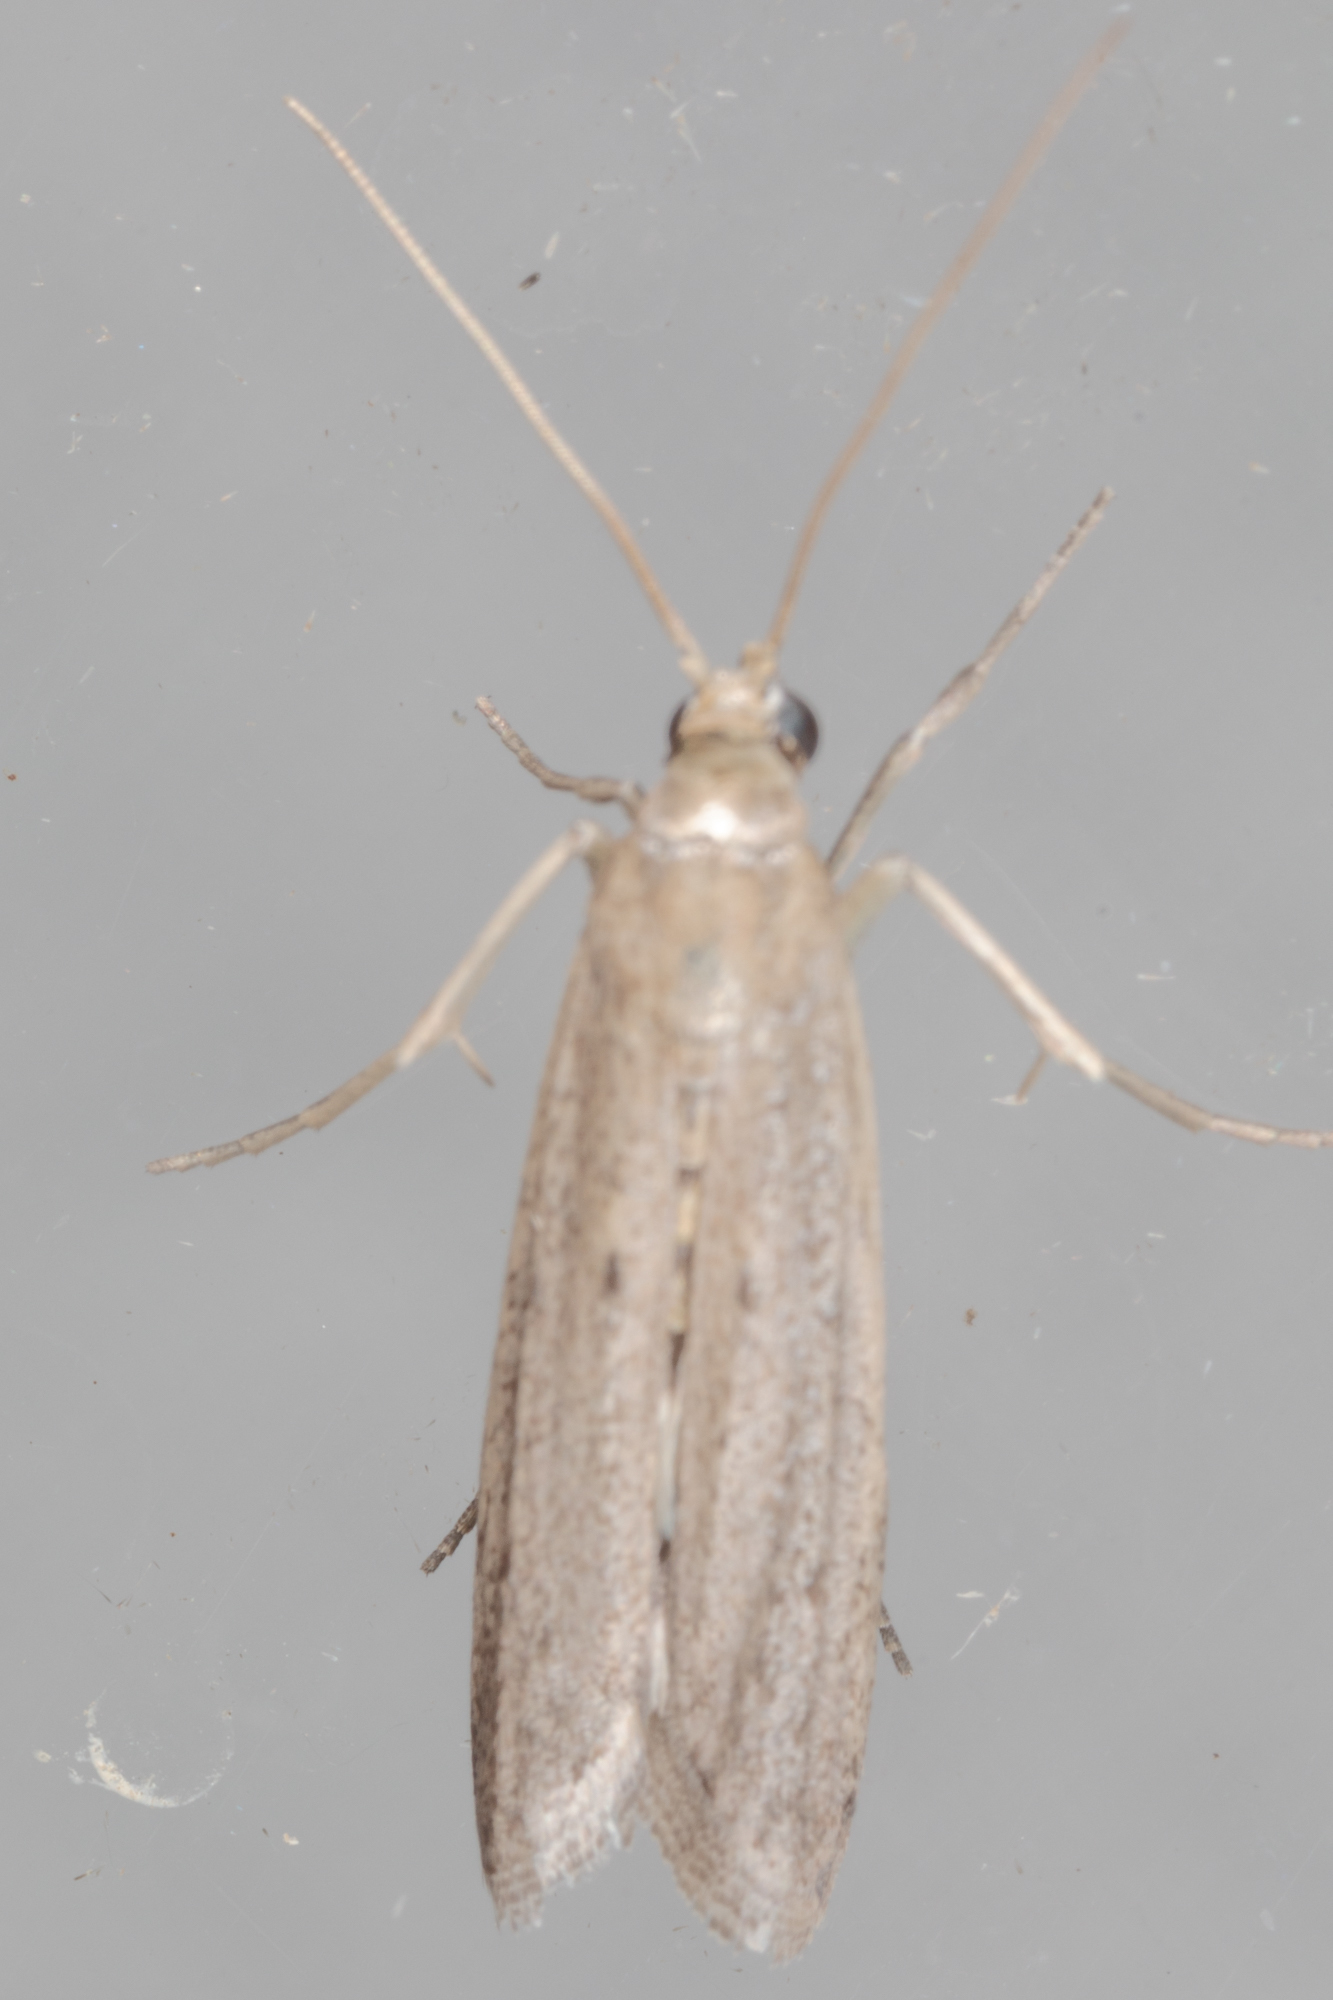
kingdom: Animalia
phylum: Arthropoda
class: Insecta
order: Lepidoptera
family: Pyralidae
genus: Homoeosoma
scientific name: Homoeosoma electella
